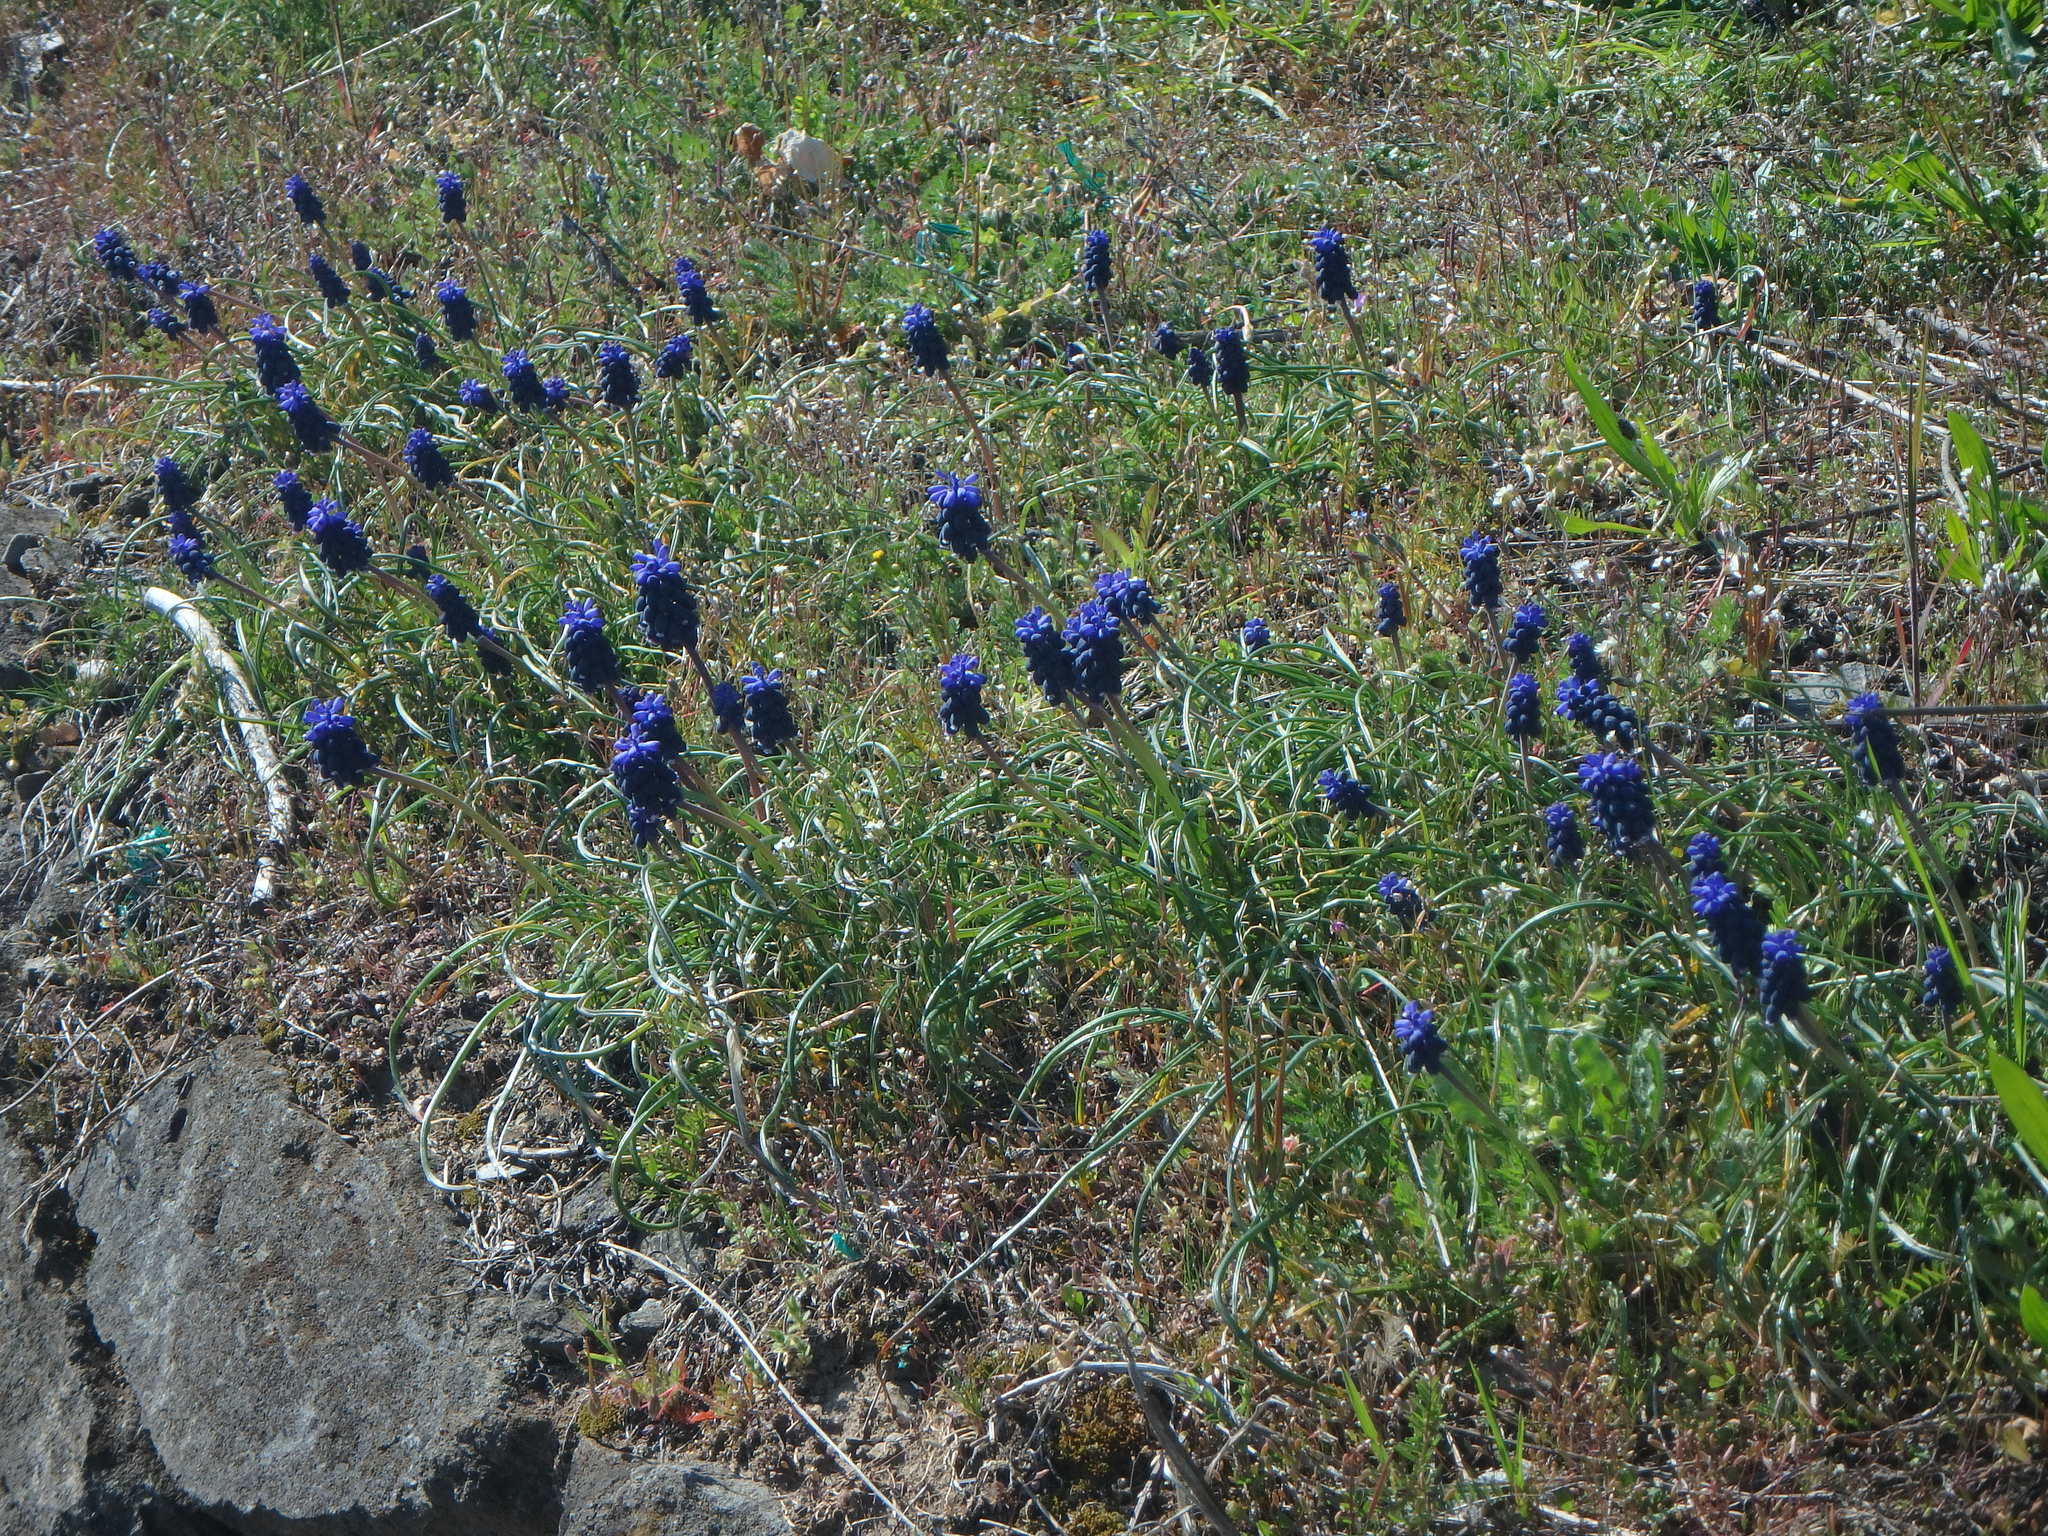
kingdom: Plantae
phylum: Tracheophyta
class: Liliopsida
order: Asparagales
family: Asparagaceae
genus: Muscari
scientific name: Muscari neglectum
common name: Grape-hyacinth
